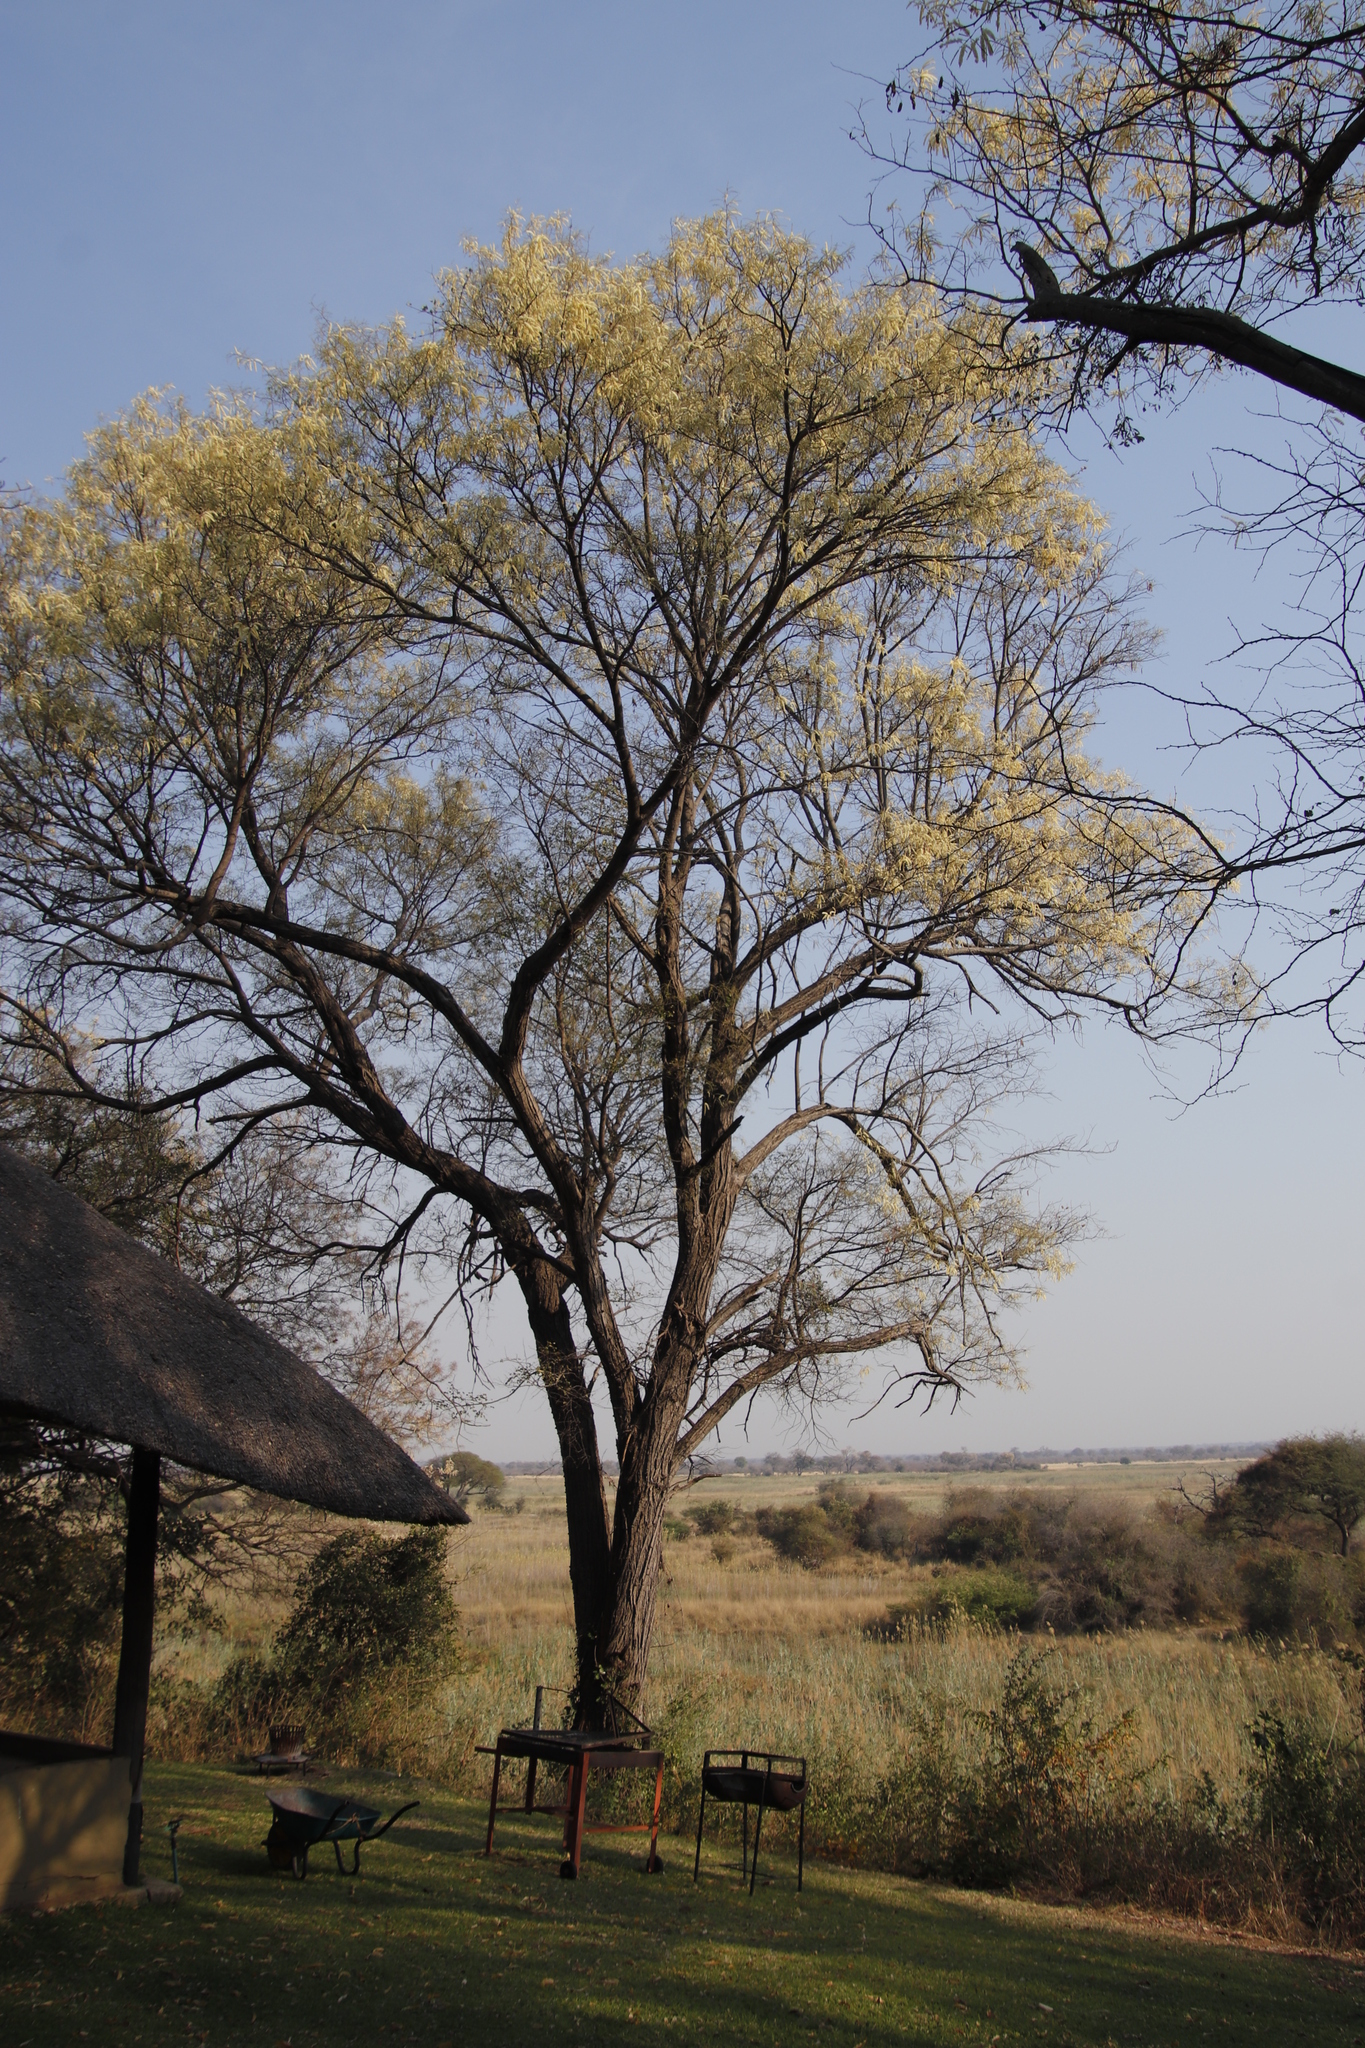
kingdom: Plantae
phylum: Tracheophyta
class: Magnoliopsida
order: Fabales
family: Fabaceae
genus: Senegalia
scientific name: Senegalia nigrescens
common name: Knobthorn
